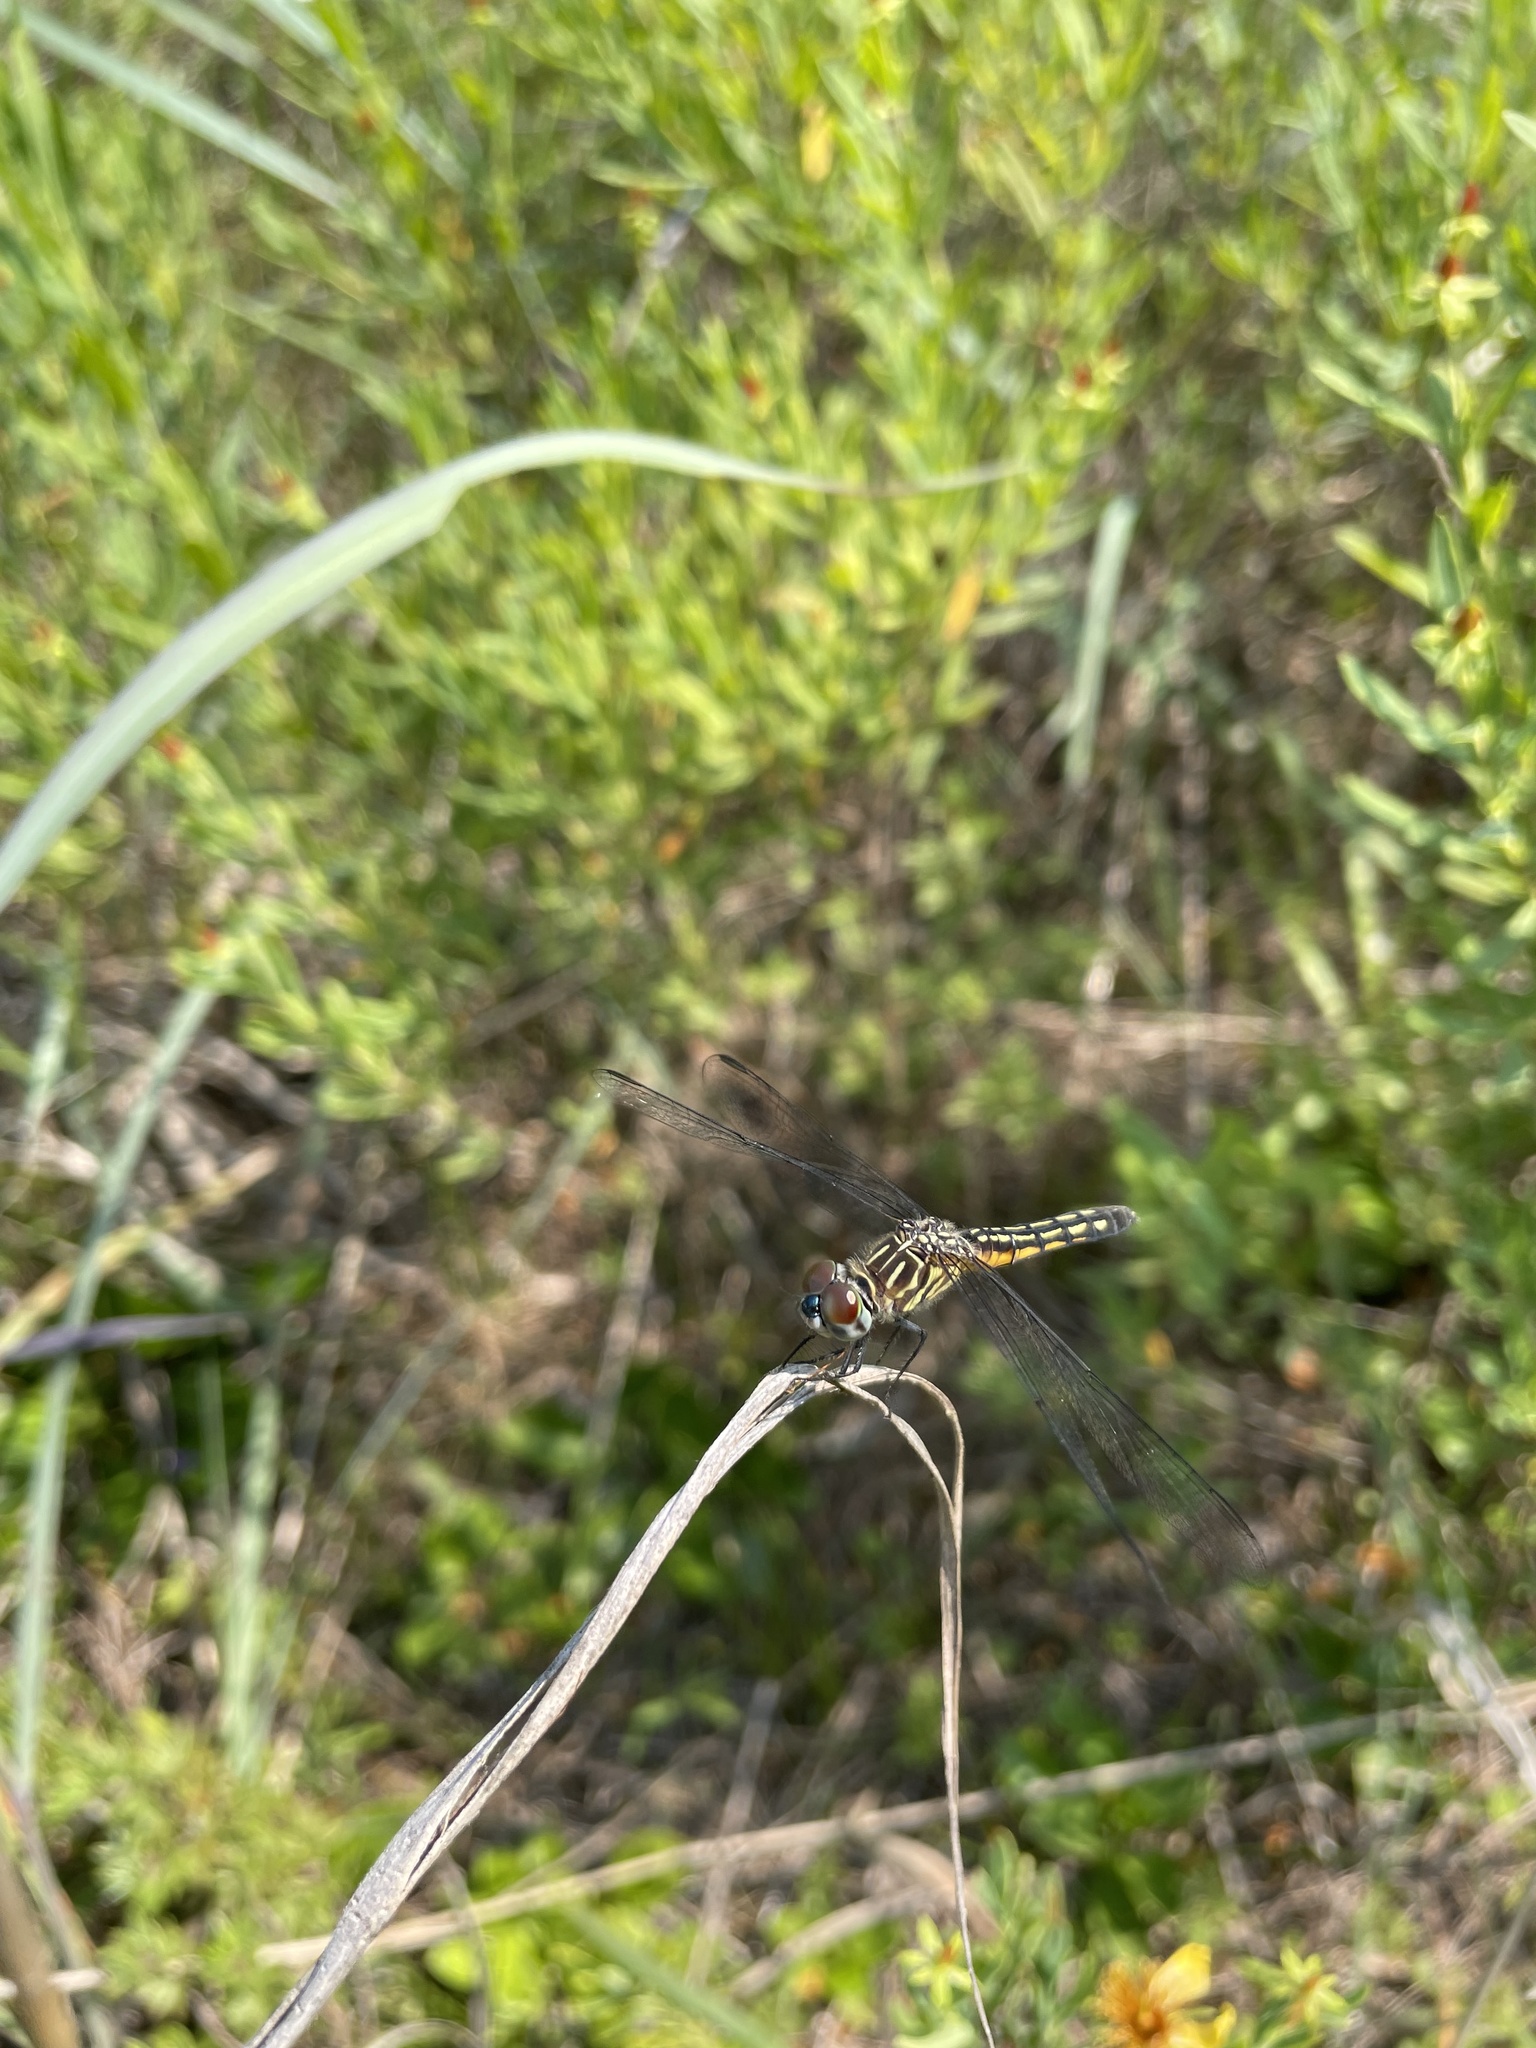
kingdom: Animalia
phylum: Arthropoda
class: Insecta
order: Odonata
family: Libellulidae
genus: Pachydiplax
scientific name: Pachydiplax longipennis
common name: Blue dasher
